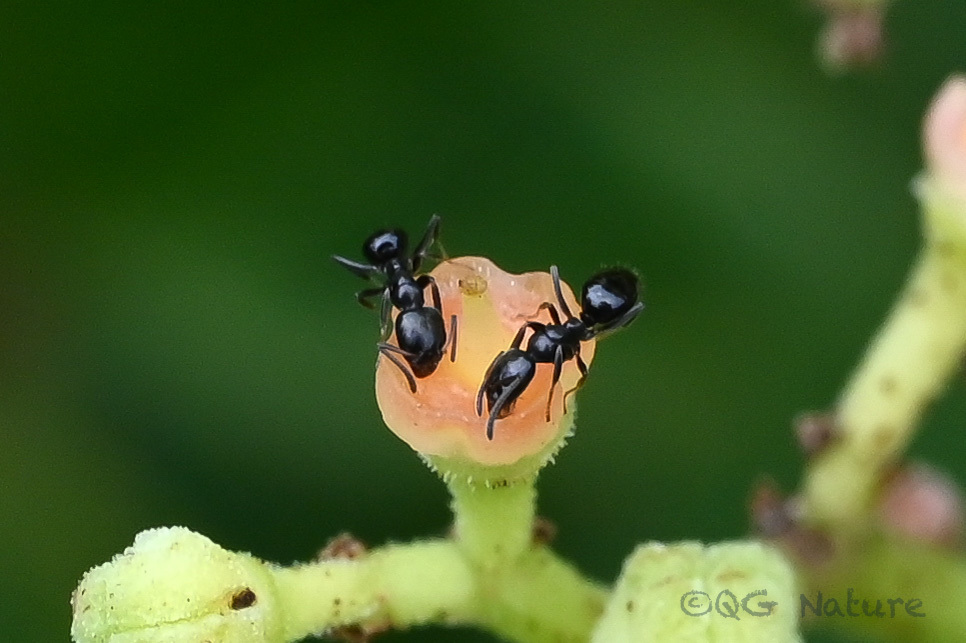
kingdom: Animalia
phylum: Arthropoda
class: Insecta
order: Hymenoptera
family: Formicidae
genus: Ochetellus
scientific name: Ochetellus glaber
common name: Ant
